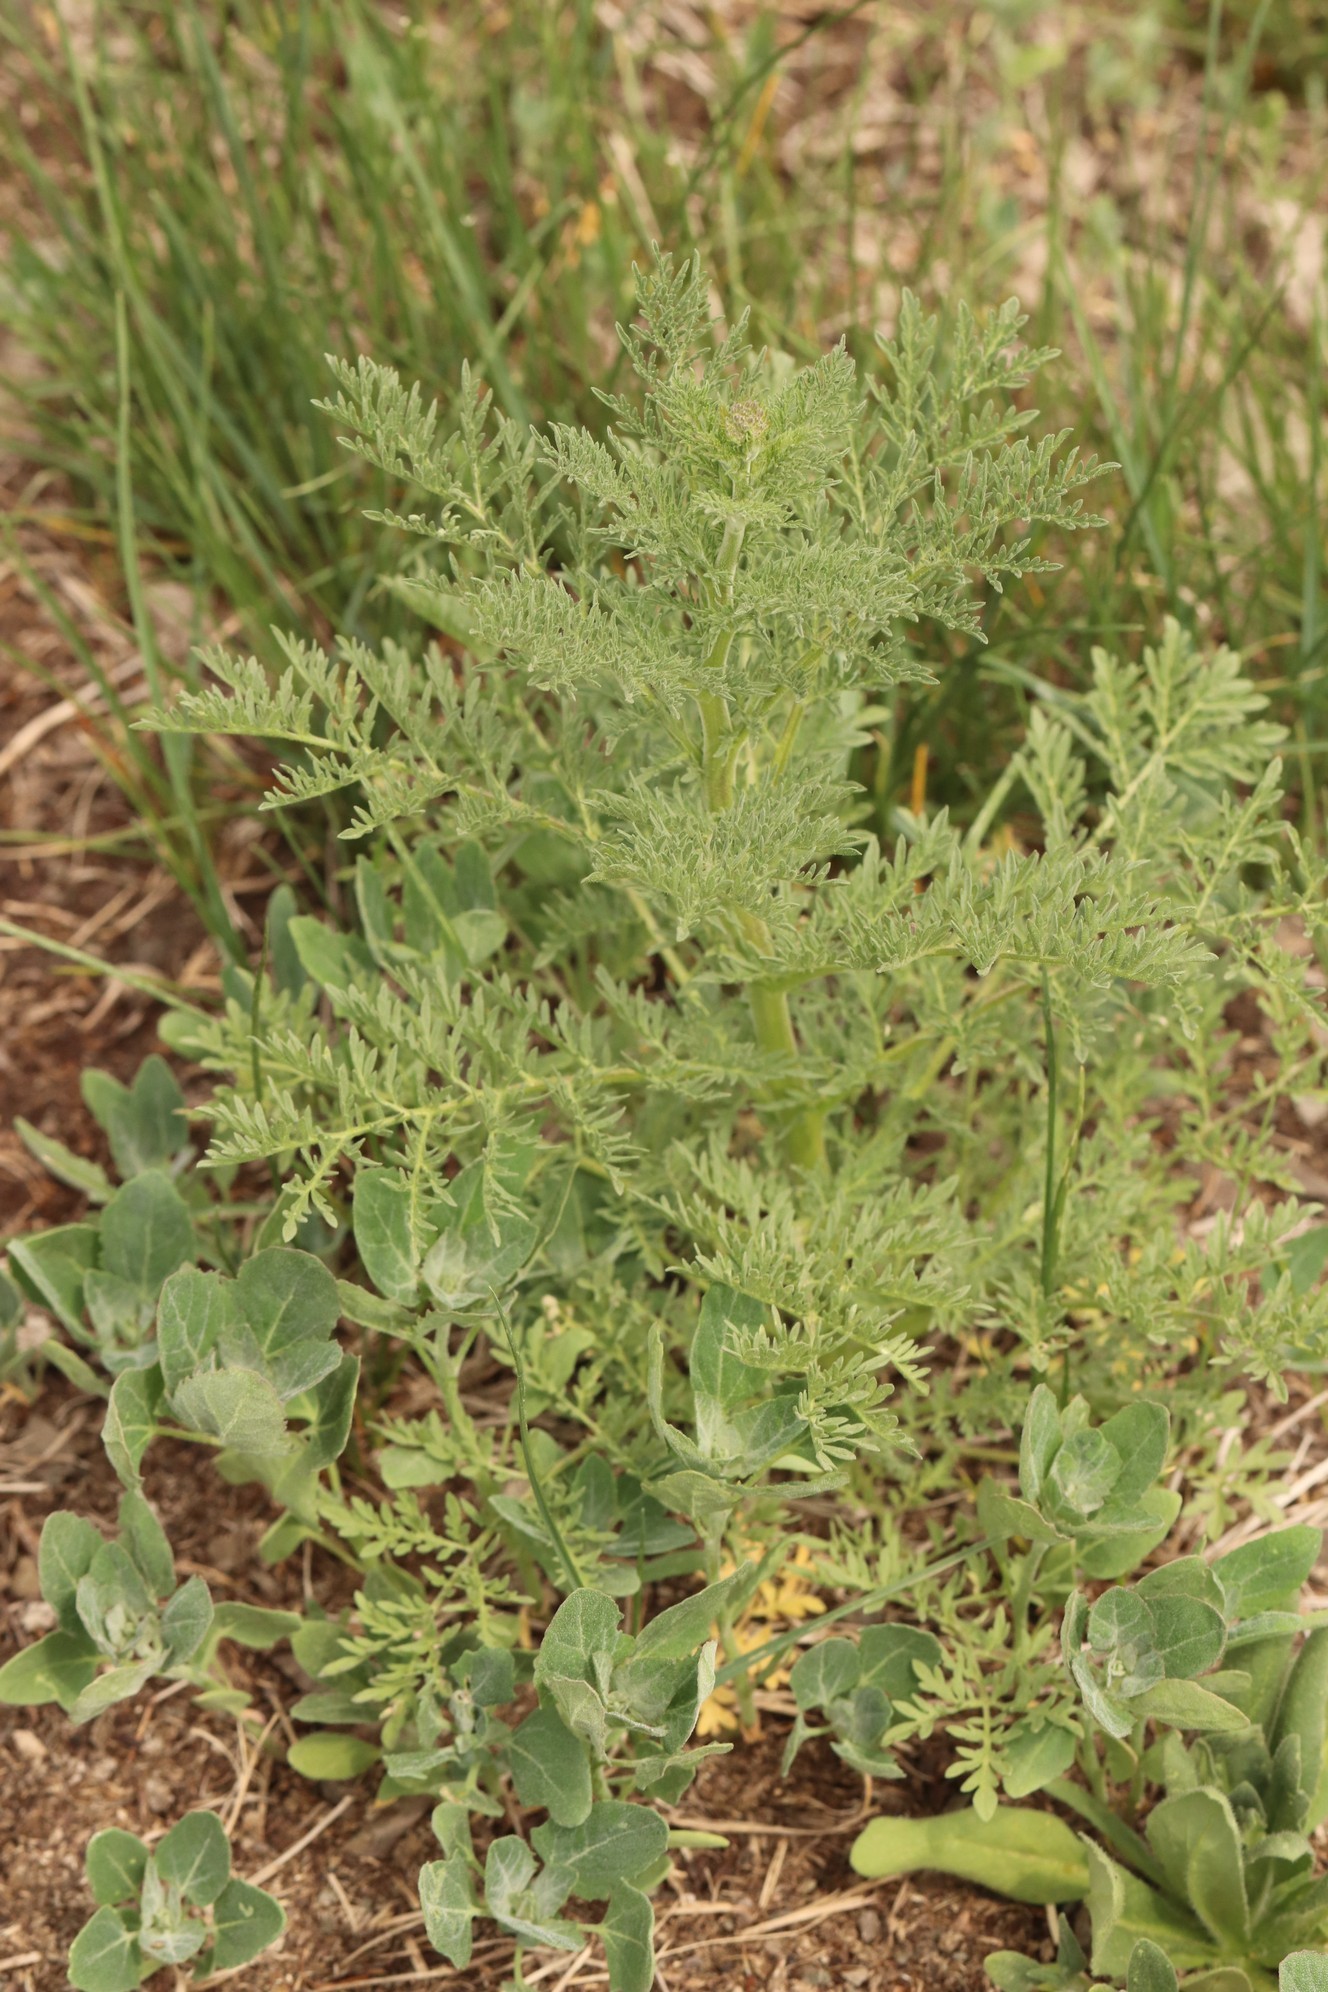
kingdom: Plantae
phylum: Tracheophyta
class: Magnoliopsida
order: Brassicales
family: Brassicaceae
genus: Descurainia
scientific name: Descurainia sophia
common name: Flixweed
